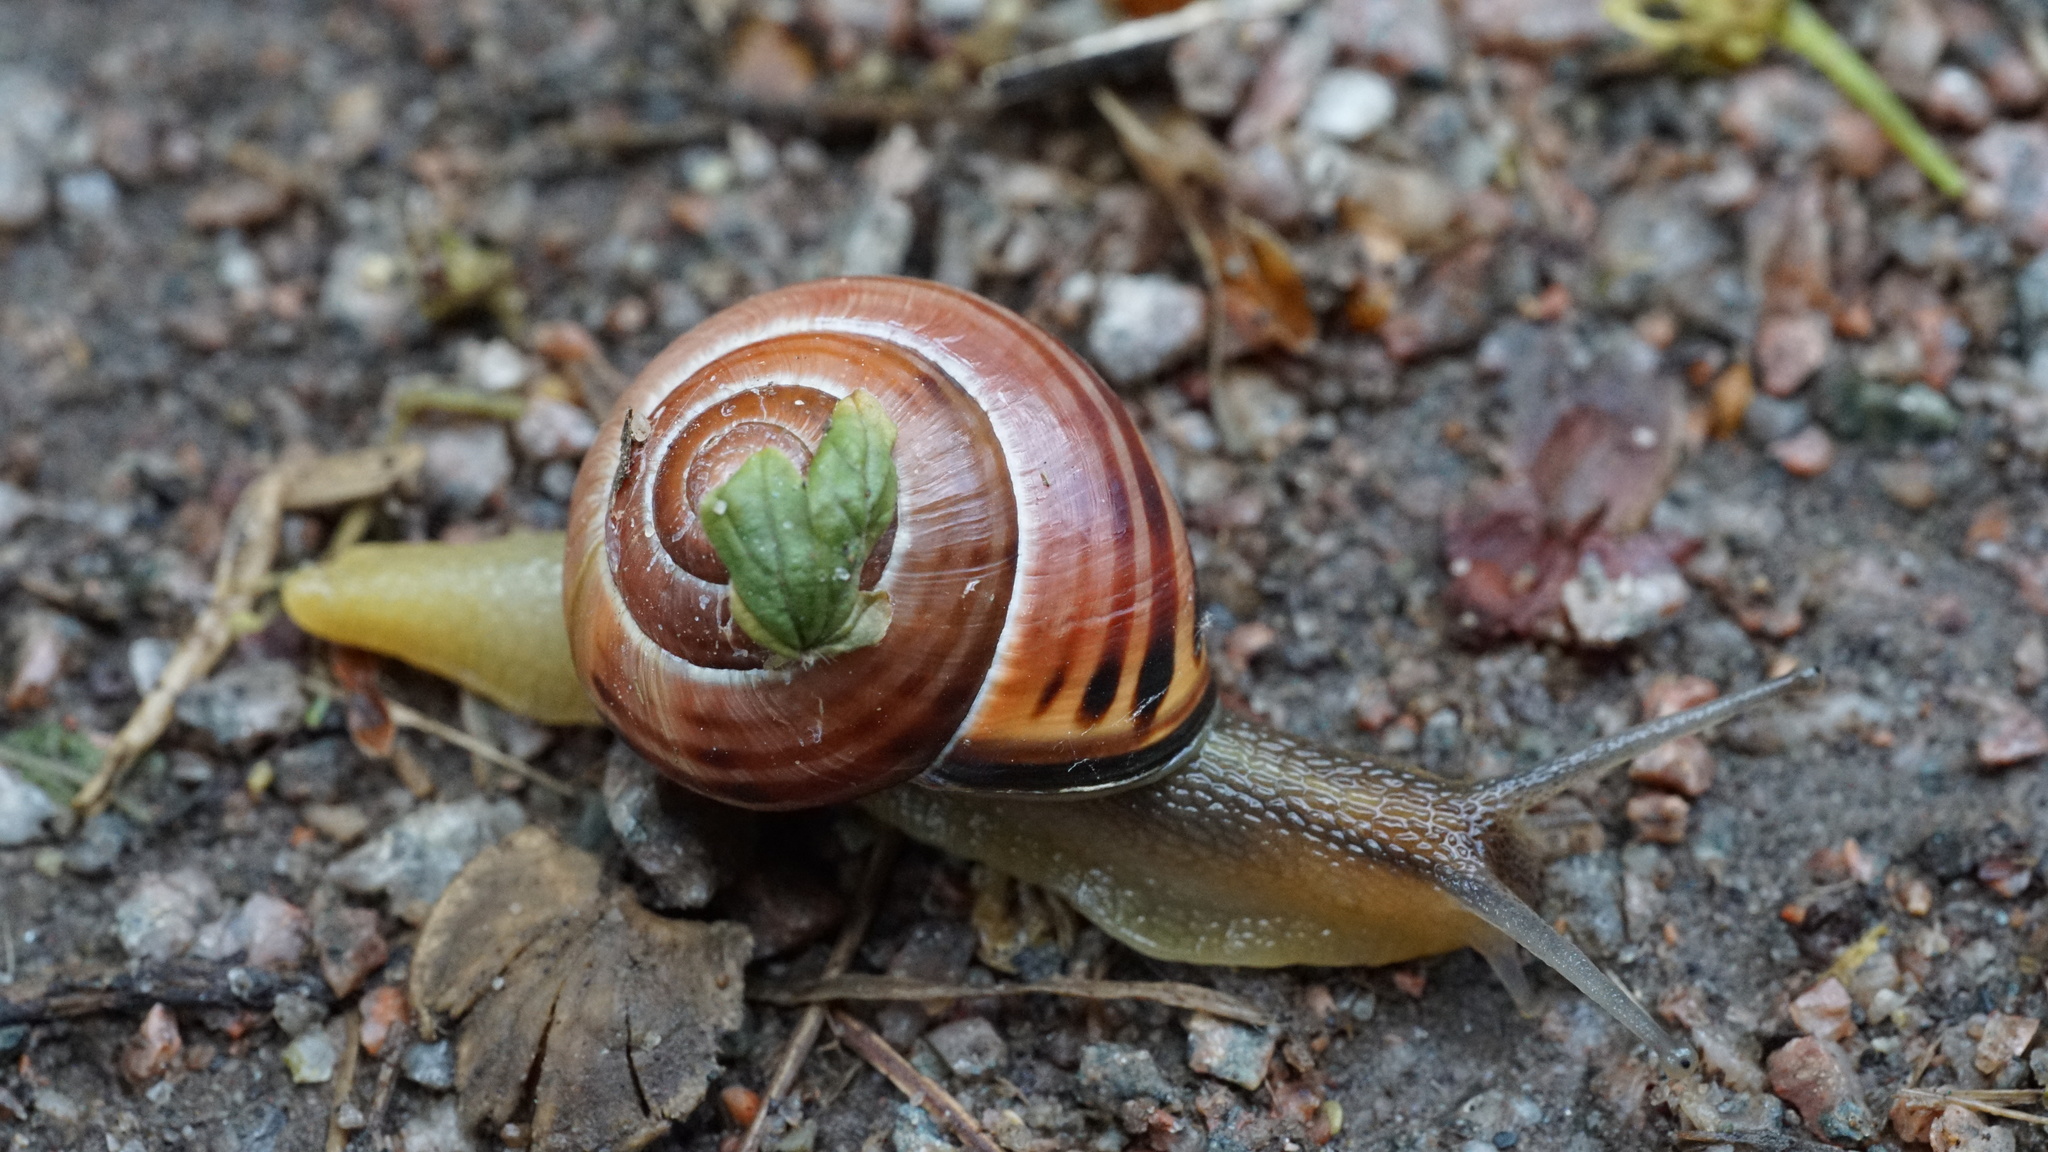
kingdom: Animalia
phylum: Mollusca
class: Gastropoda
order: Stylommatophora
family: Helicidae
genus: Cepaea
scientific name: Cepaea nemoralis
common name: Grovesnail
